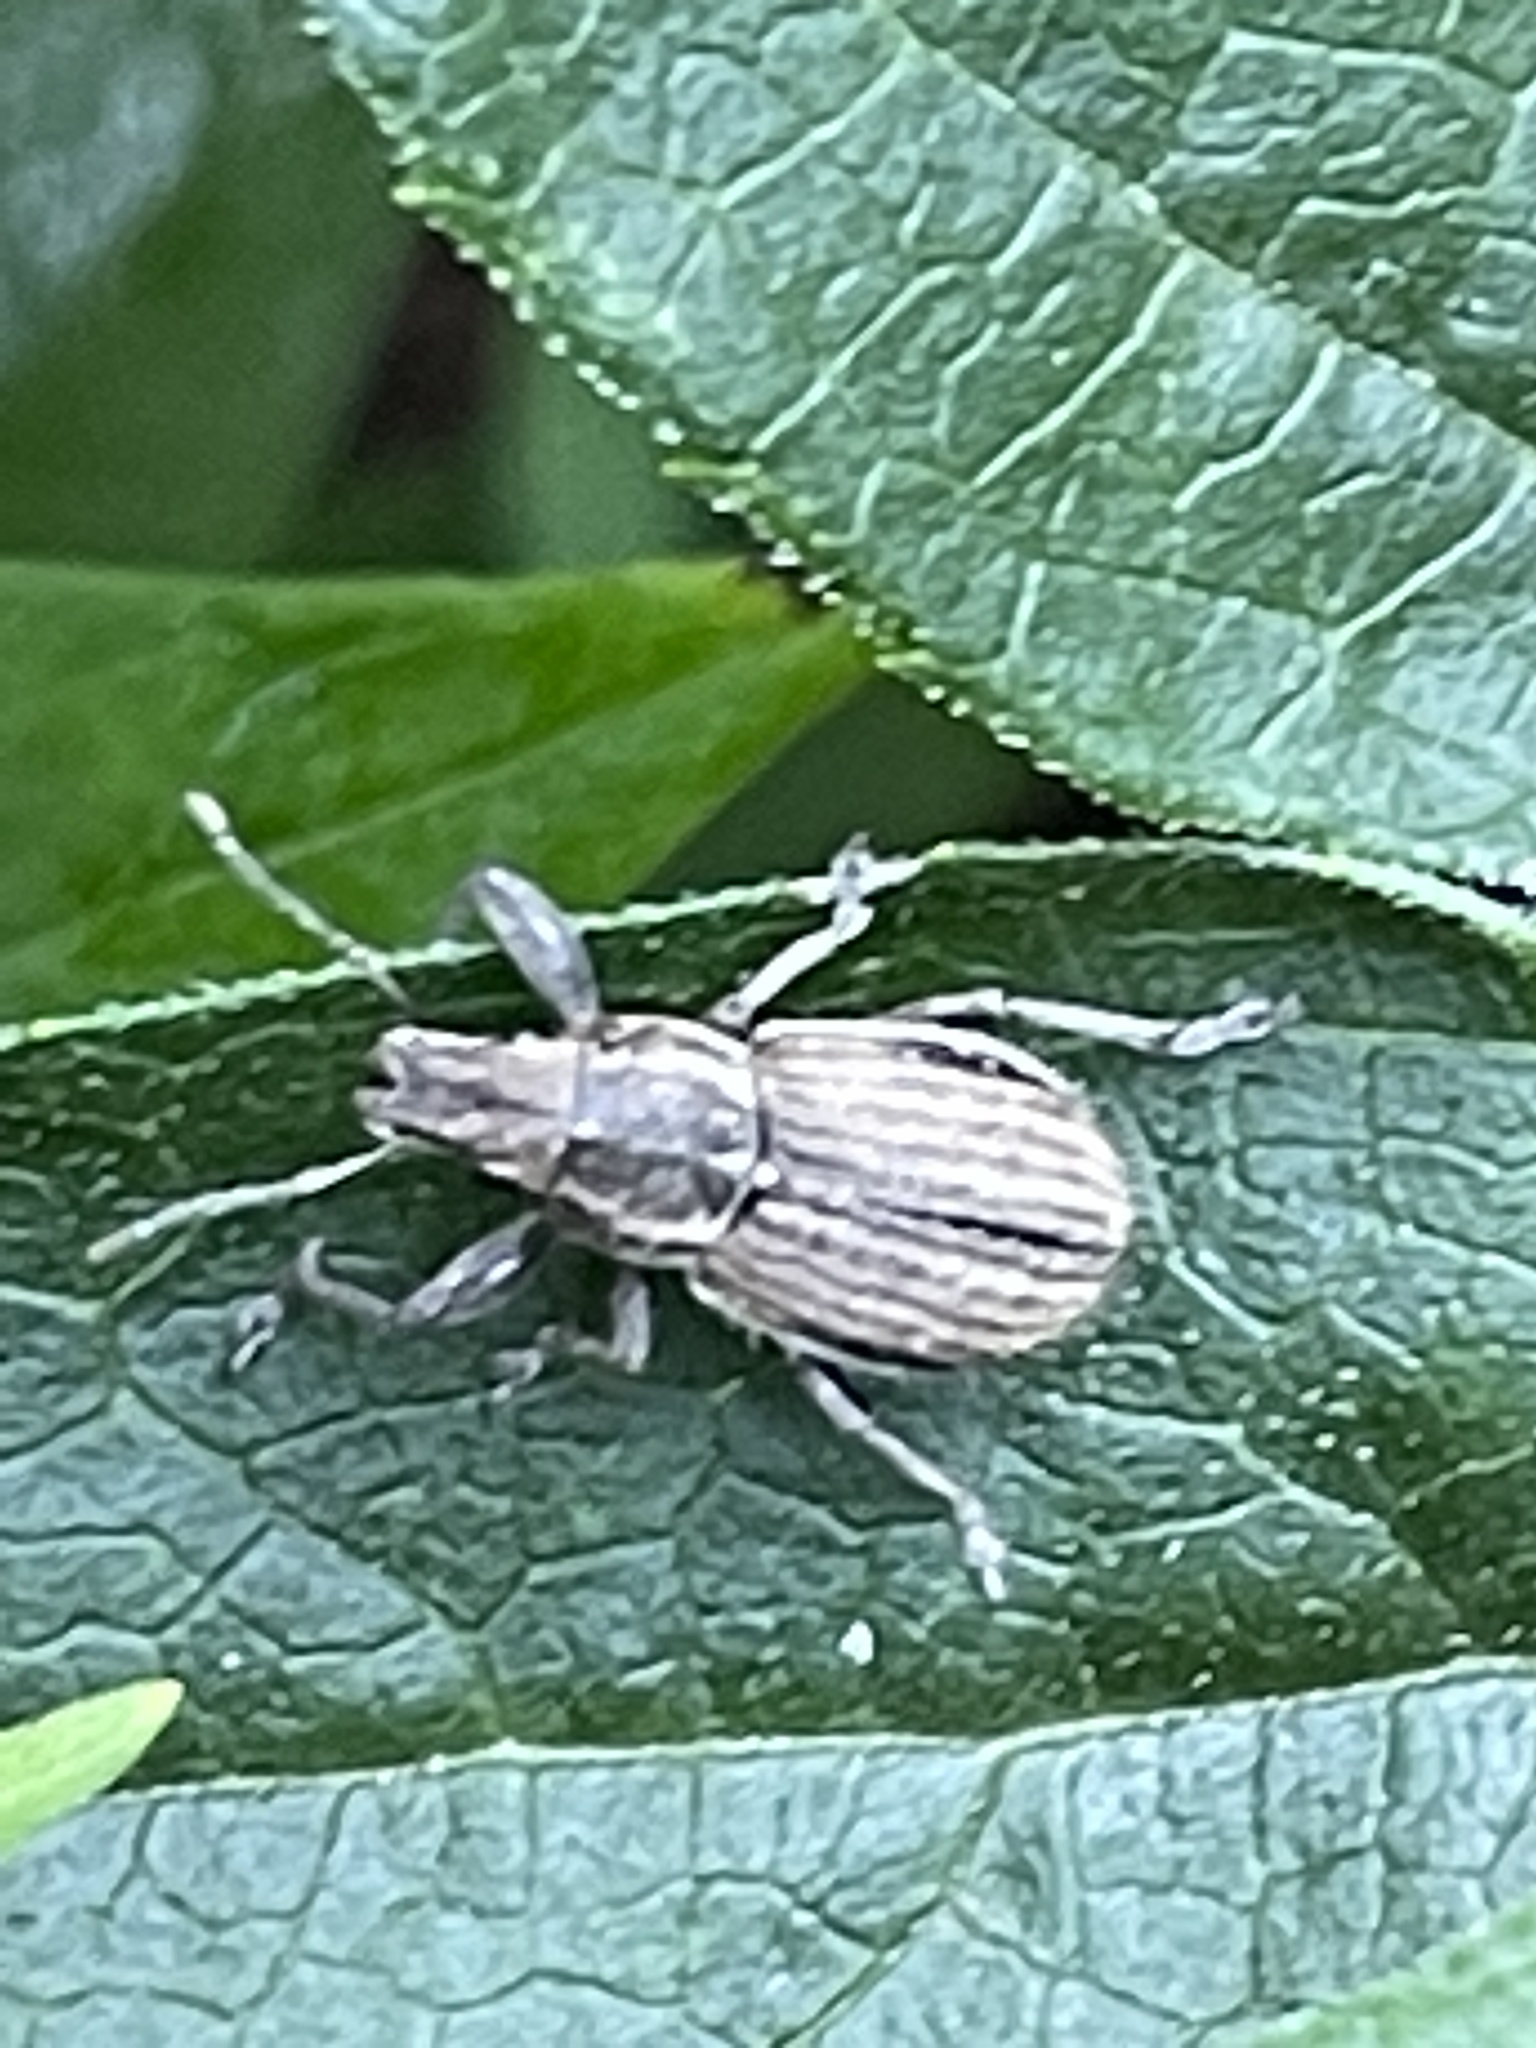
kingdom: Animalia
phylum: Arthropoda
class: Insecta
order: Coleoptera
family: Curculionidae
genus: Naupactus
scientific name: Naupactus leucoloma
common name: Whitefringed beetle
